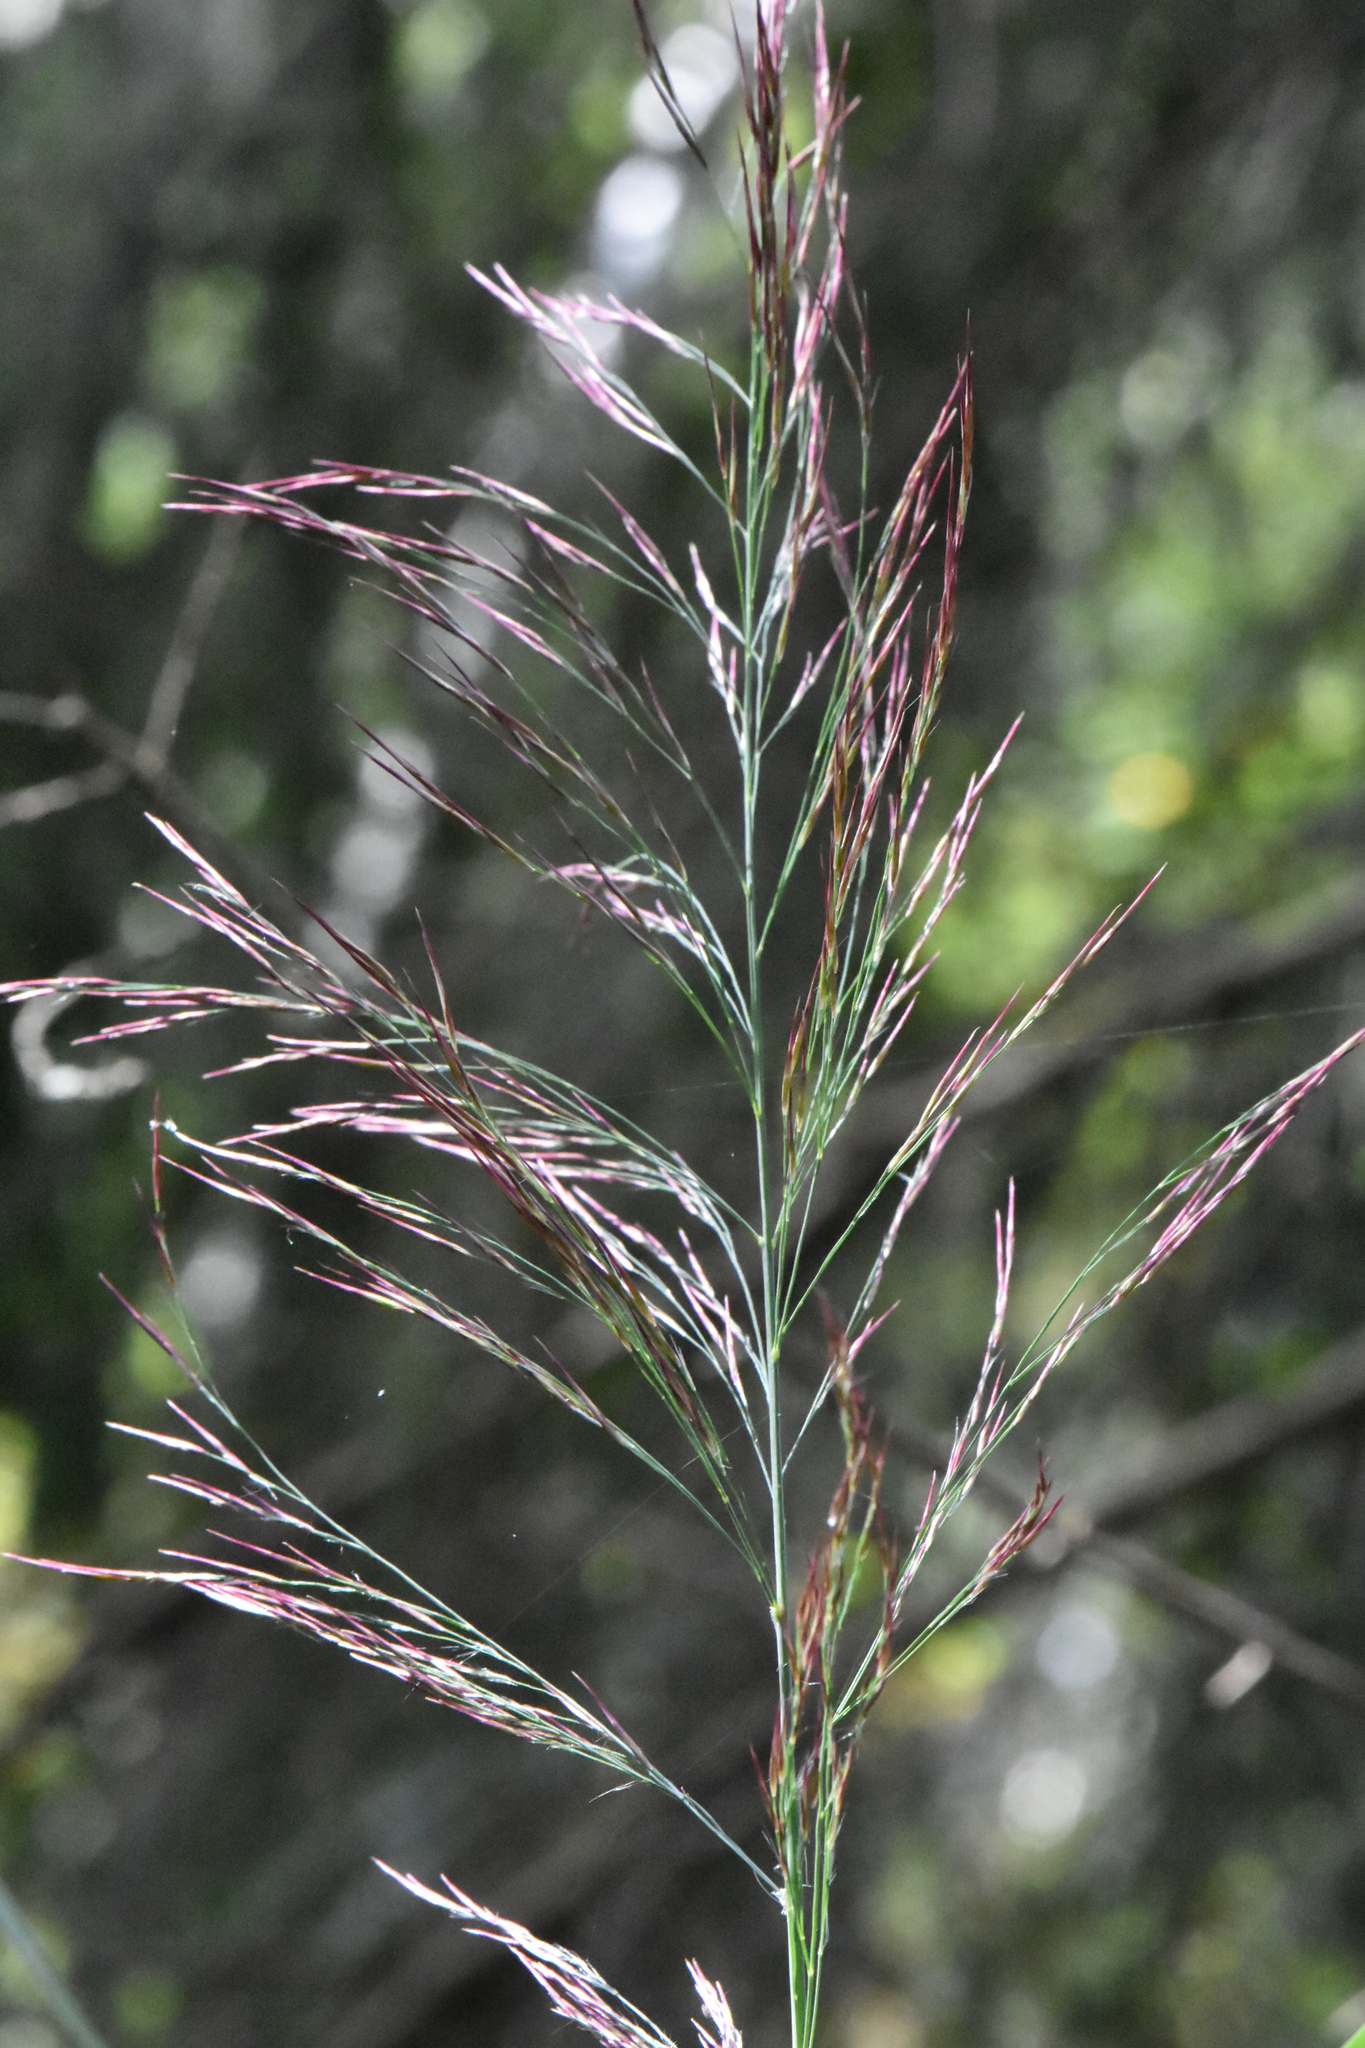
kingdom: Plantae
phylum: Tracheophyta
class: Liliopsida
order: Poales
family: Poaceae
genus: Phragmites
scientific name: Phragmites australis
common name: Common reed
